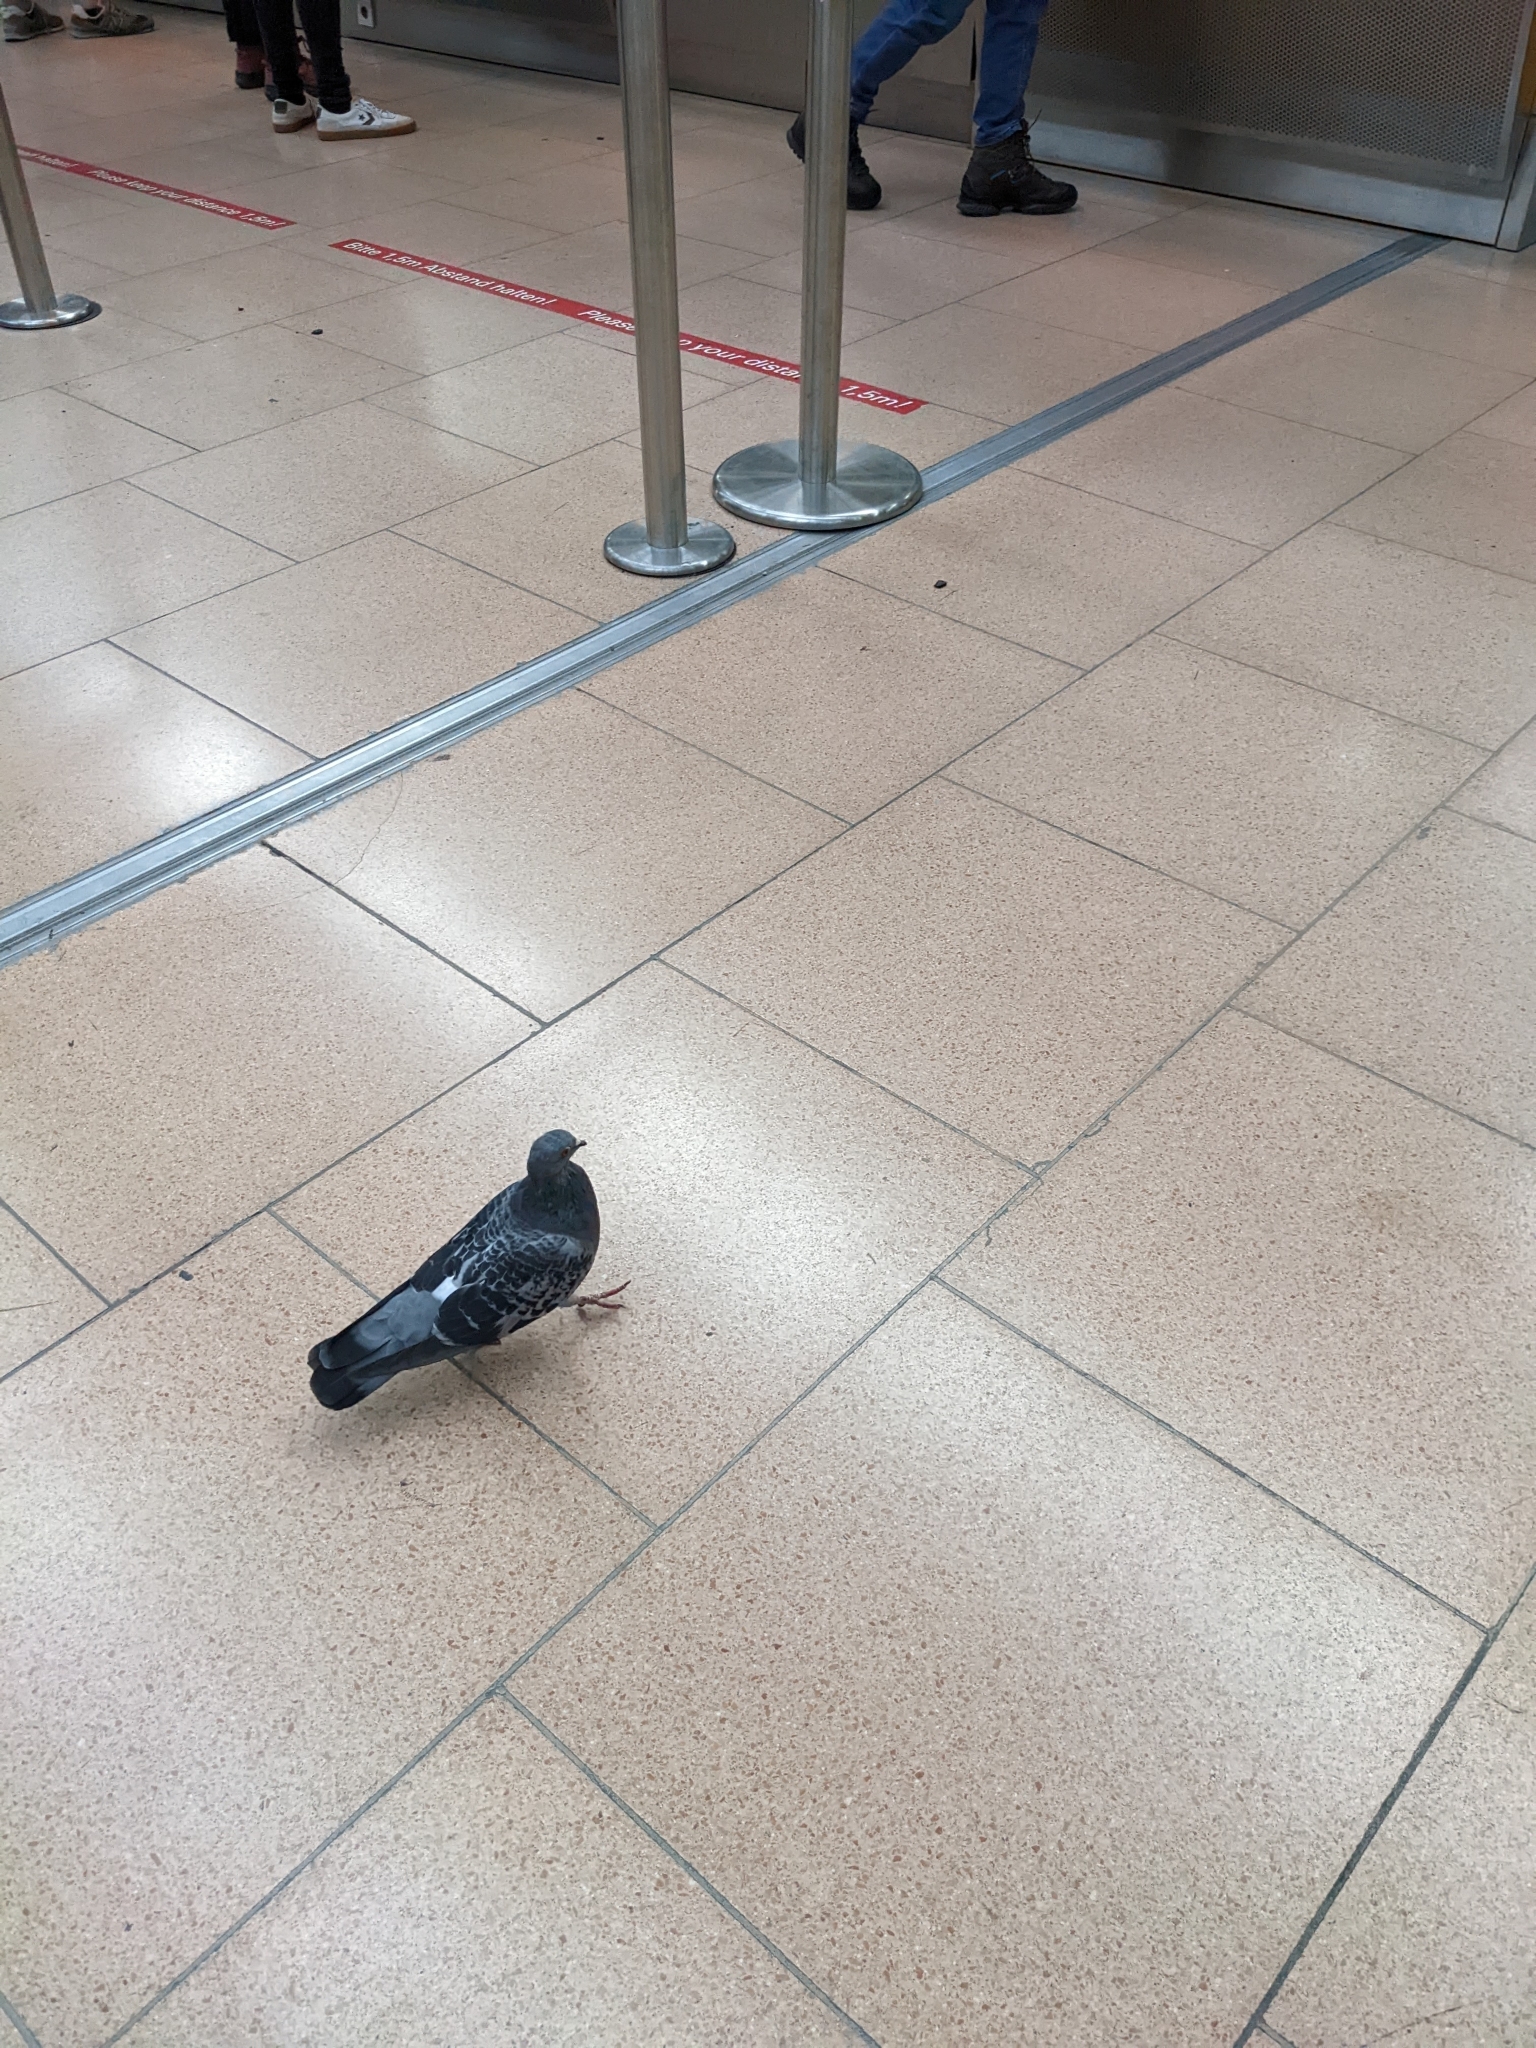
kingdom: Animalia
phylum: Chordata
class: Aves
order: Columbiformes
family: Columbidae
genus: Columba
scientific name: Columba livia
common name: Rock pigeon
